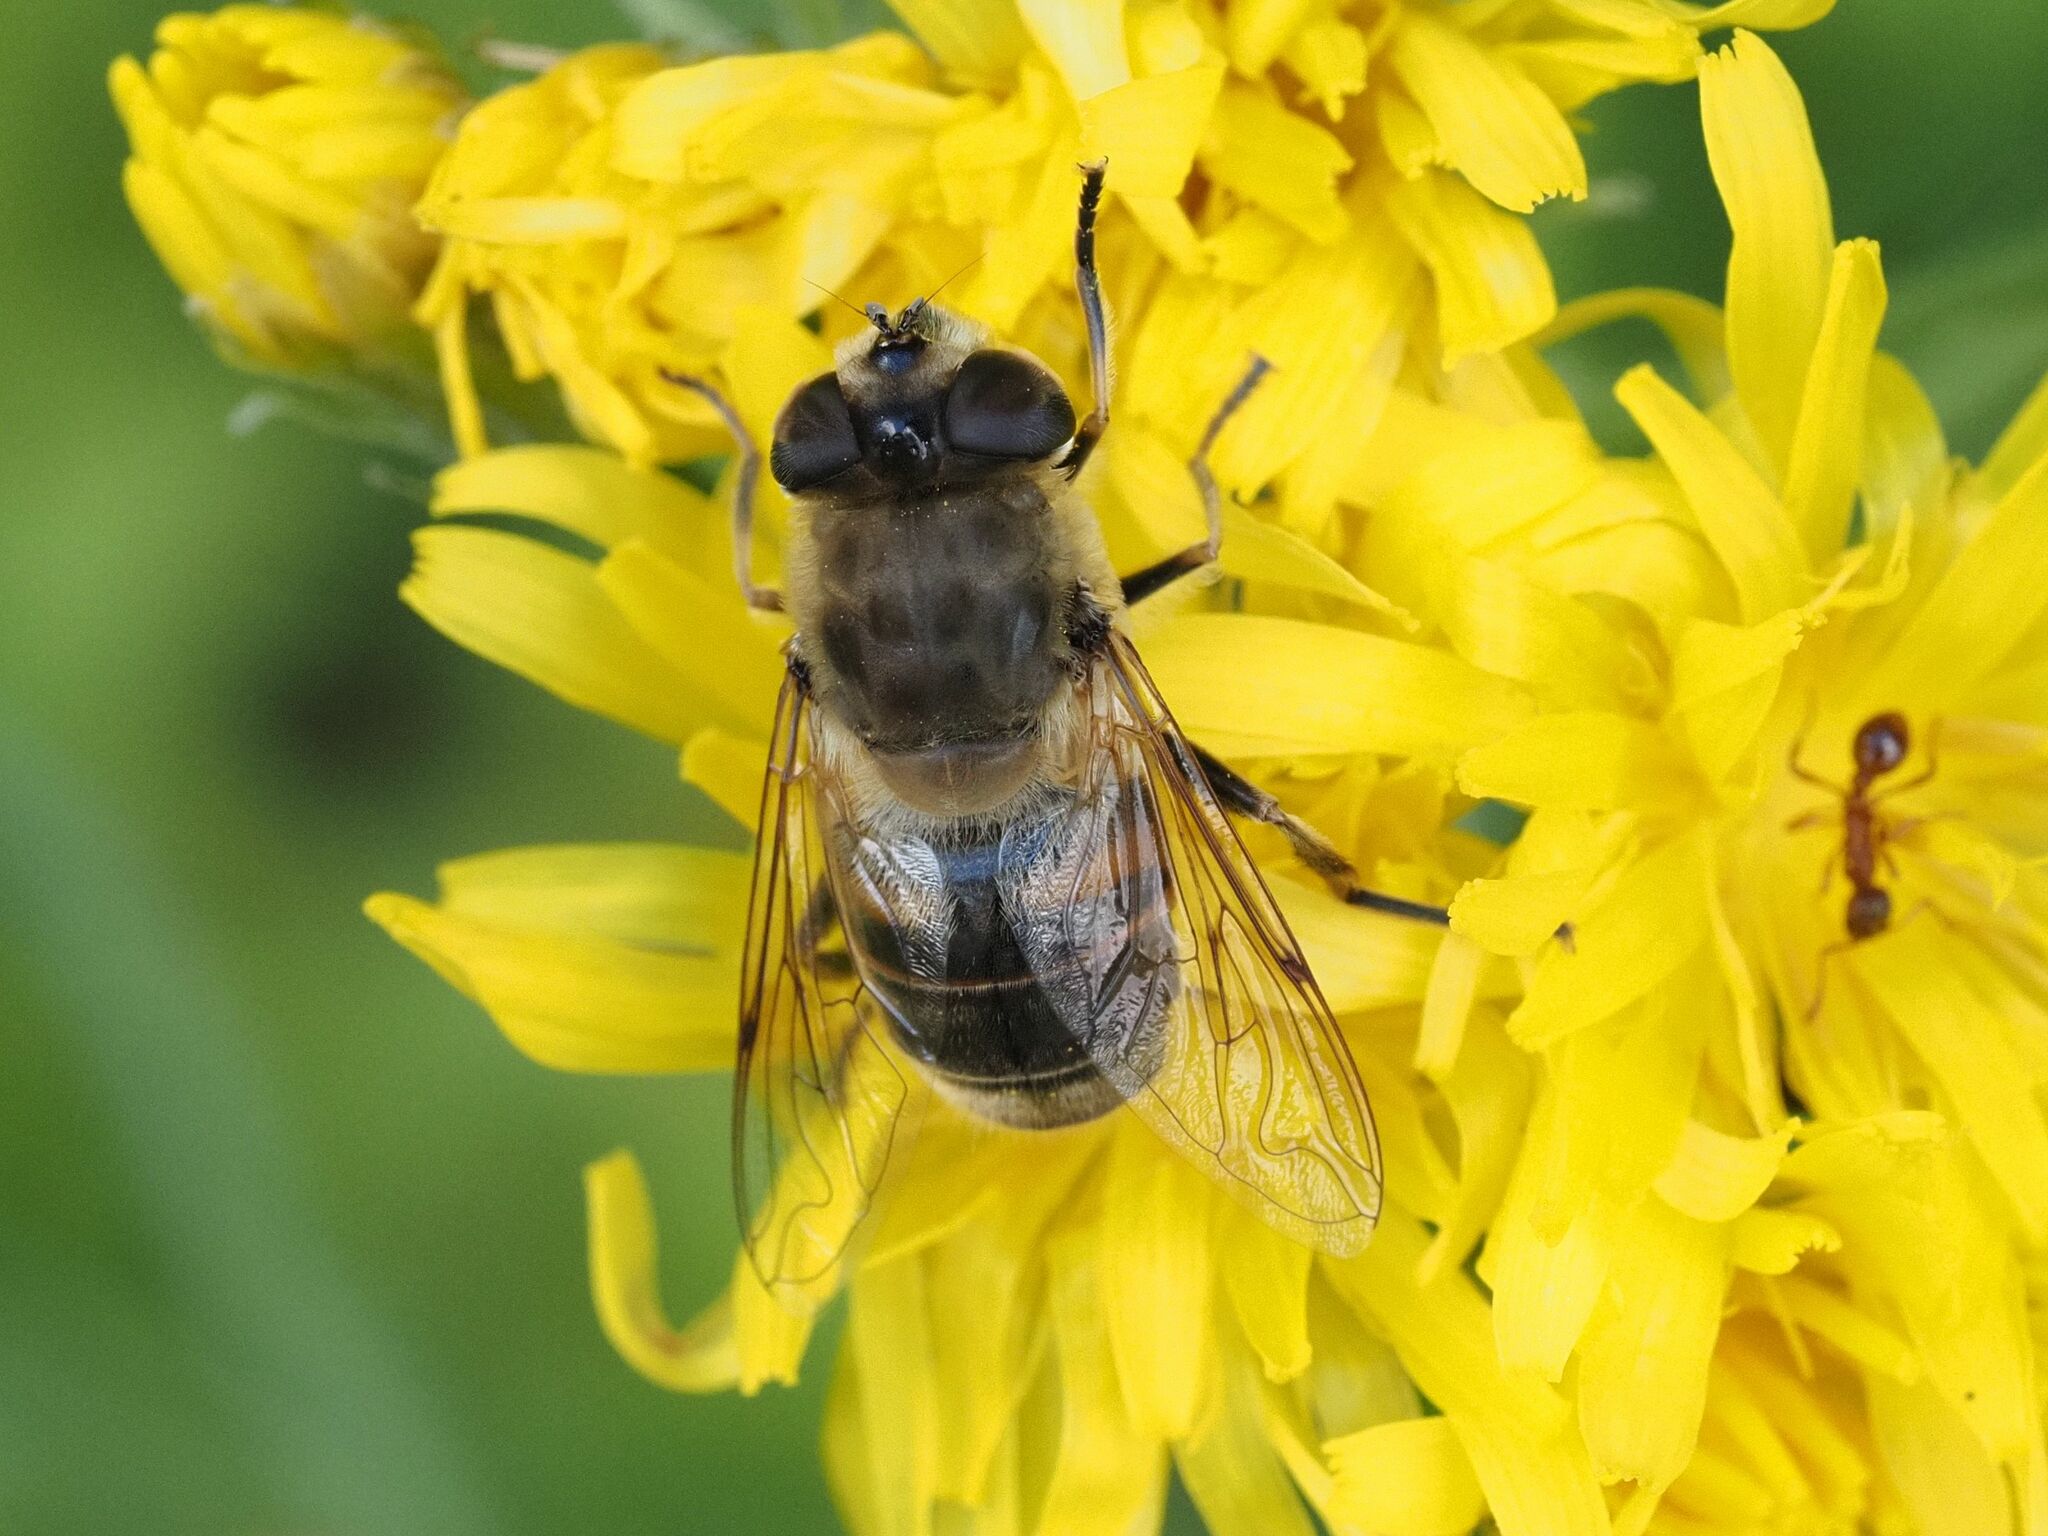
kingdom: Animalia
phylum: Arthropoda
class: Insecta
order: Diptera
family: Syrphidae
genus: Eristalis
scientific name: Eristalis tenax
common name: Drone fly
